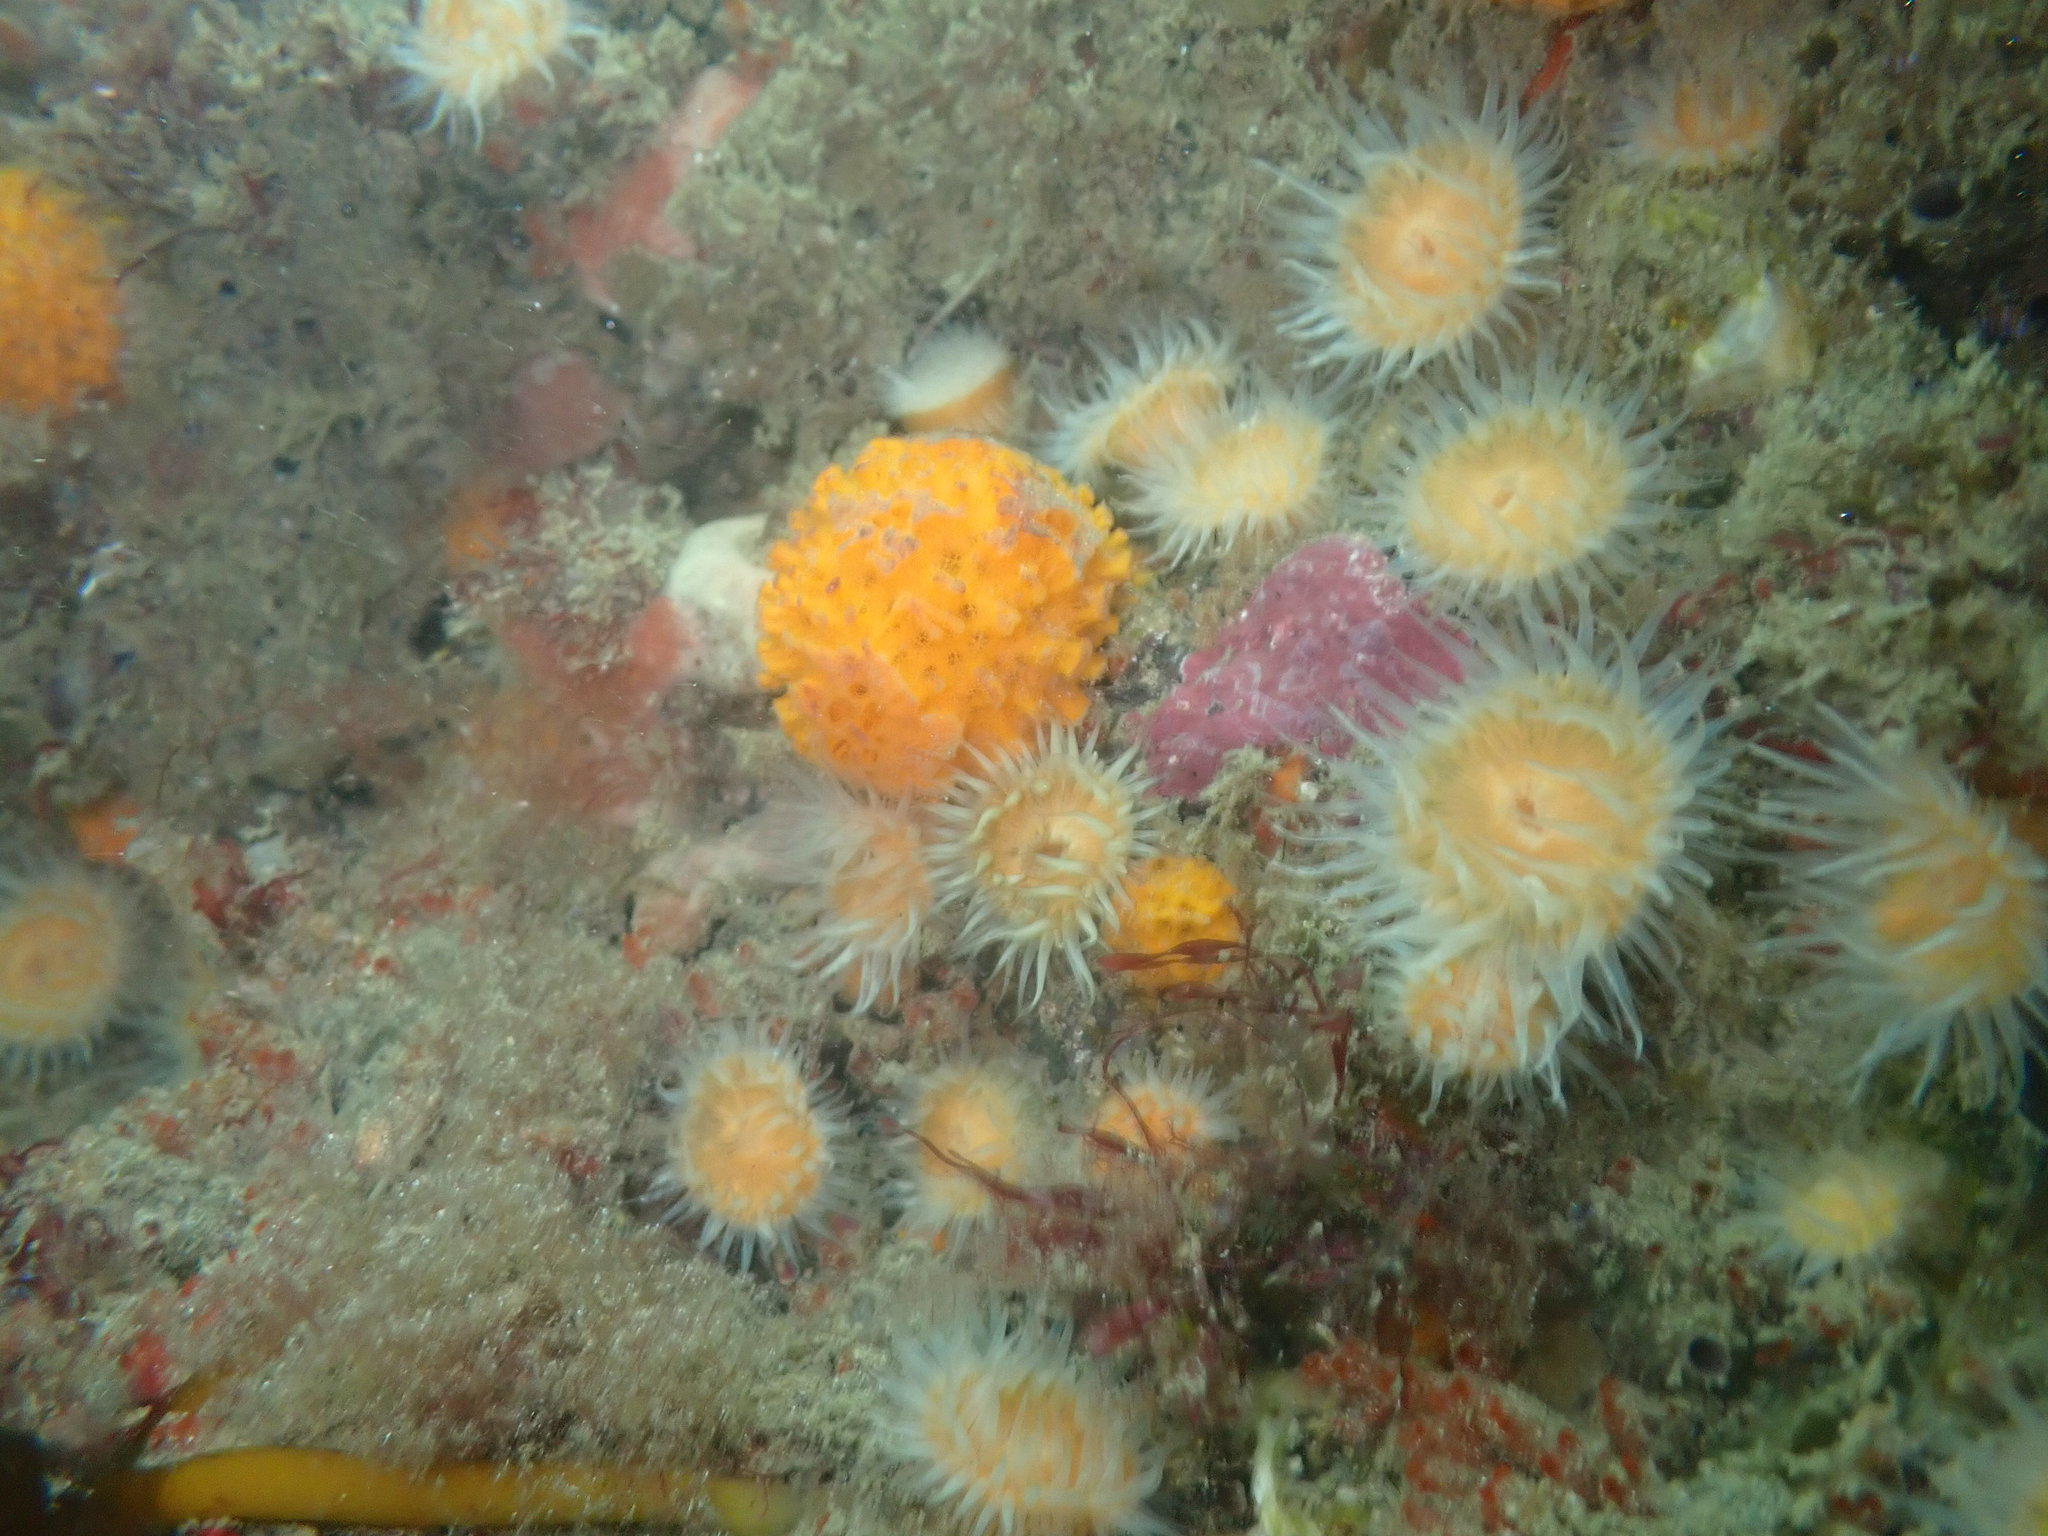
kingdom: Animalia
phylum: Porifera
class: Demospongiae
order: Tethyida
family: Tethyidae
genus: Tethya
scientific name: Tethya burtoni
